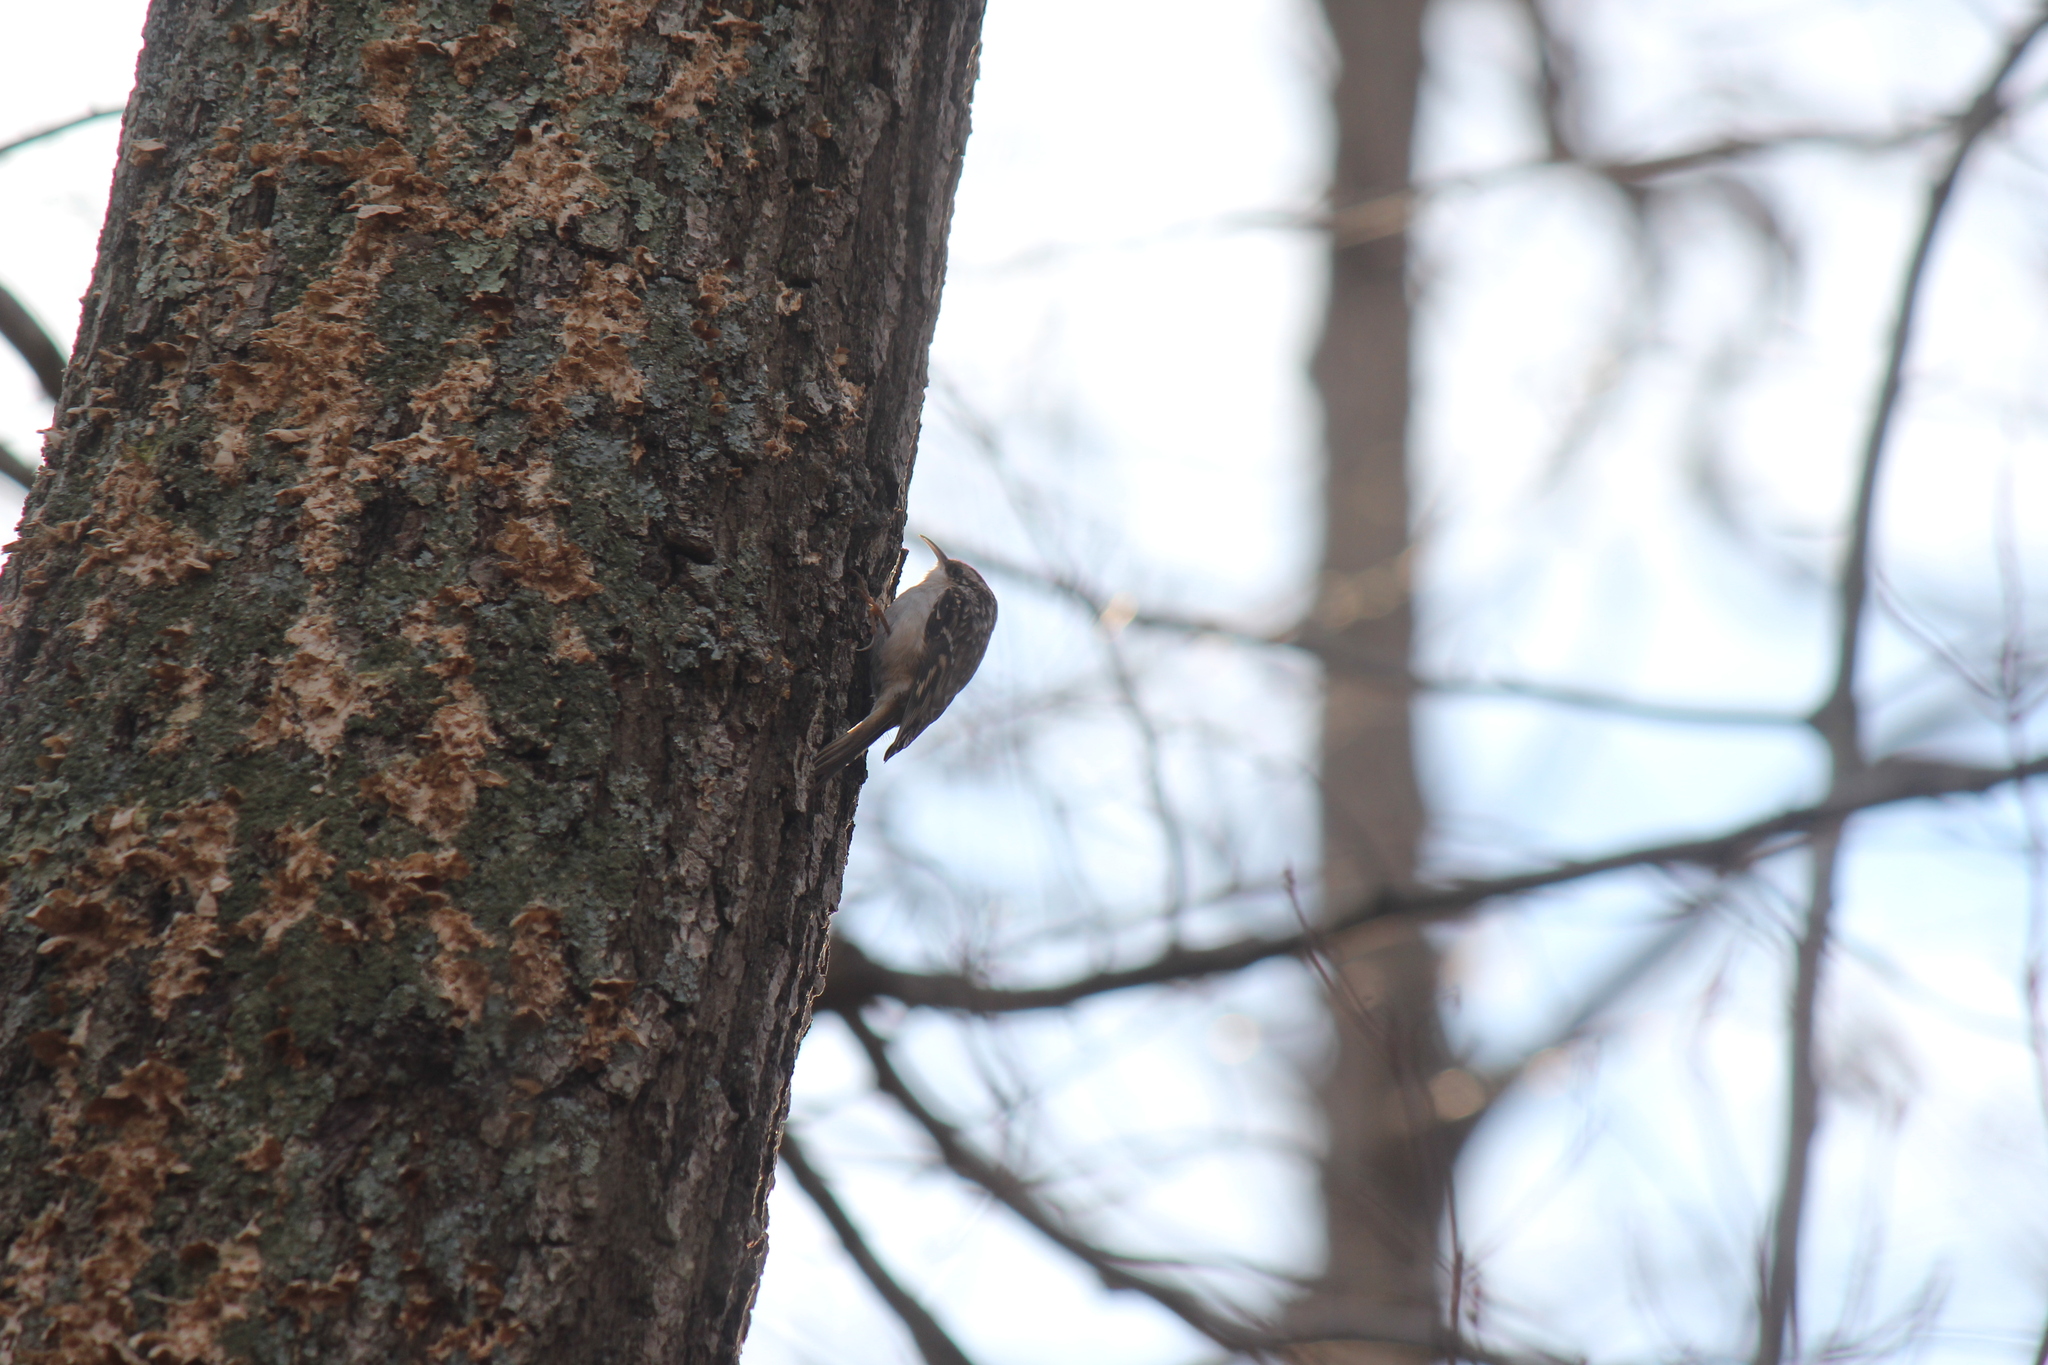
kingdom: Animalia
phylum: Chordata
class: Aves
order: Passeriformes
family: Certhiidae
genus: Certhia
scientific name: Certhia americana
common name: Brown creeper
